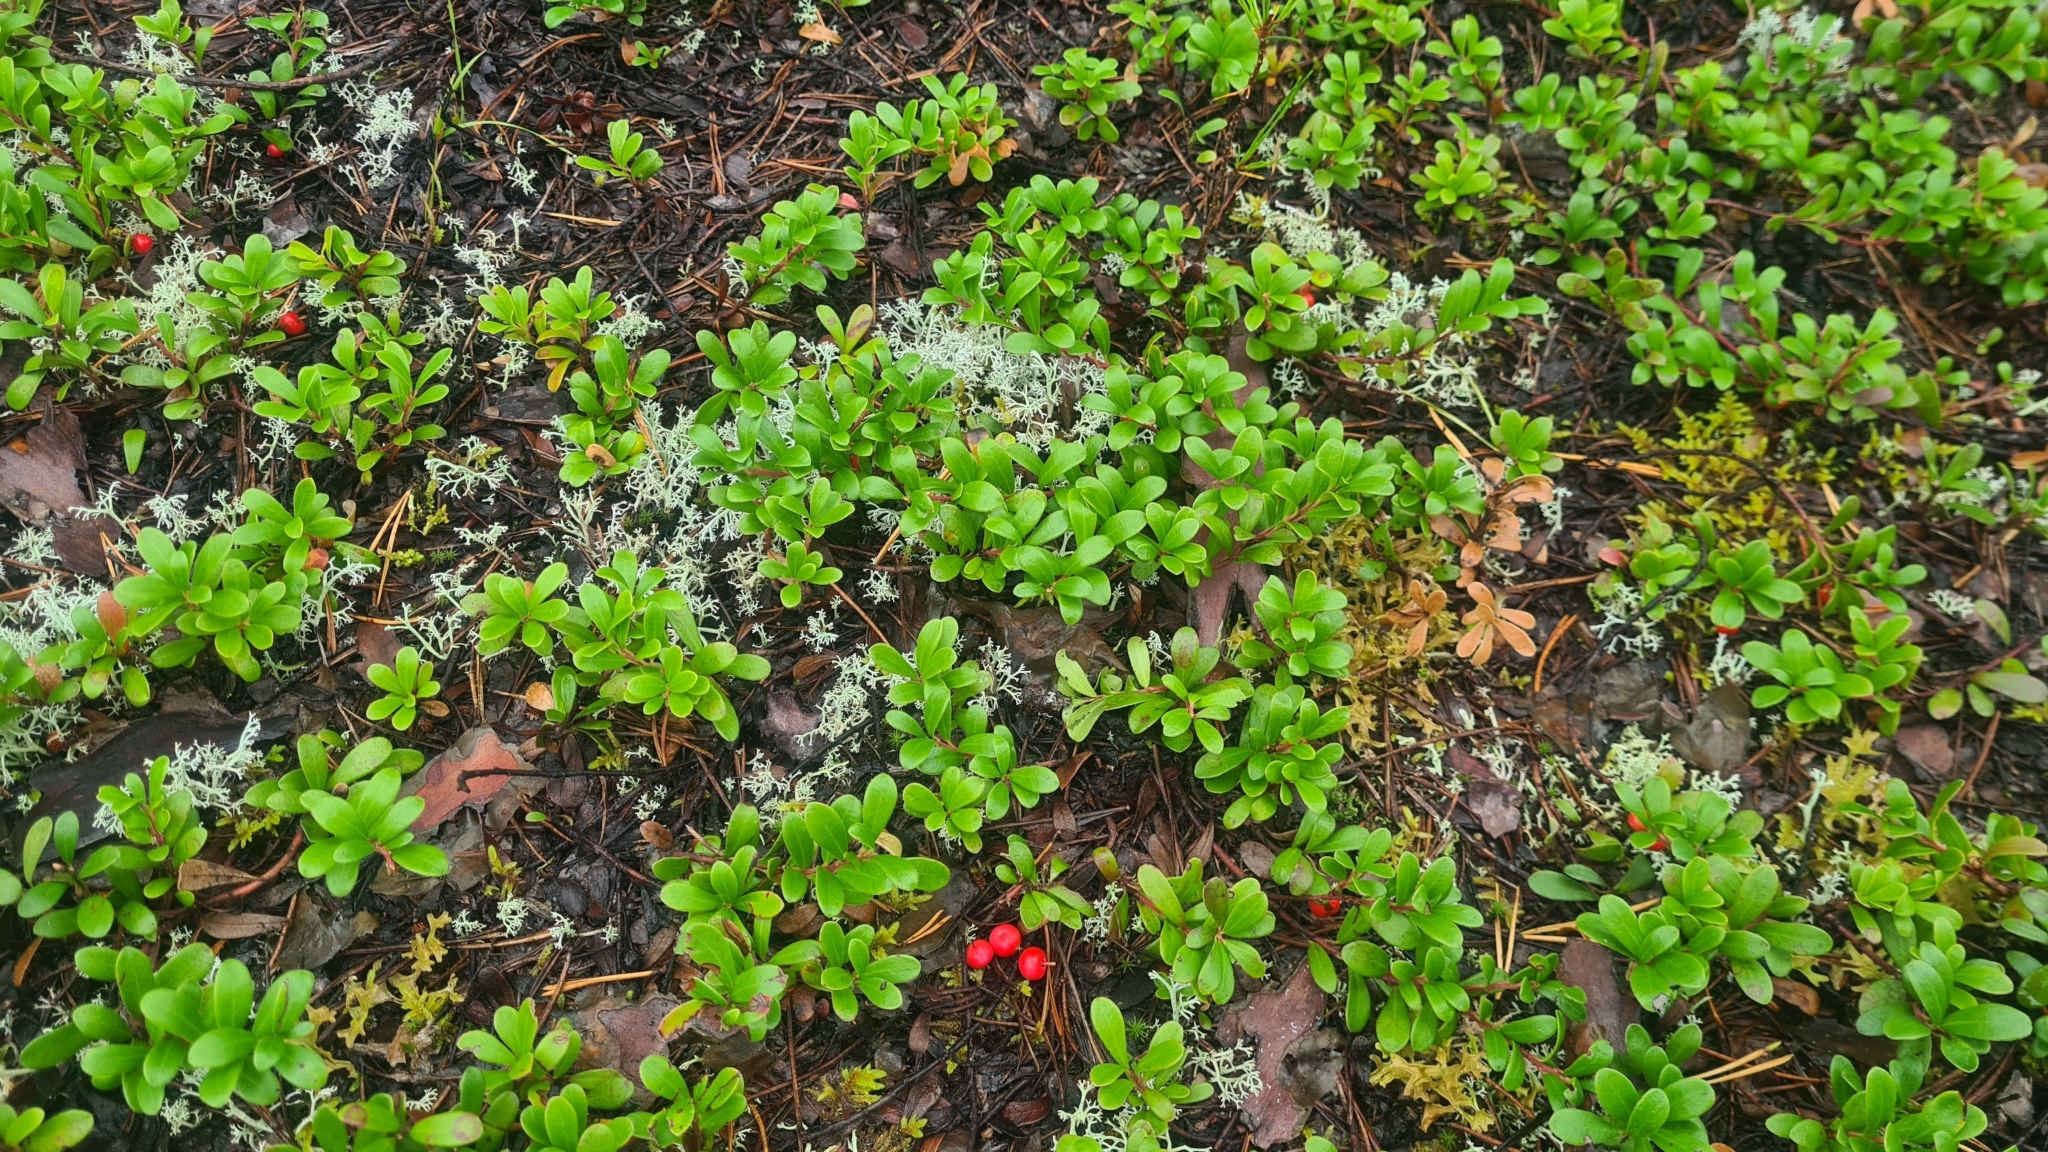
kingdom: Plantae
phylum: Tracheophyta
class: Magnoliopsida
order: Ericales
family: Ericaceae
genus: Arctostaphylos
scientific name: Arctostaphylos uva-ursi
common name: Bearberry
